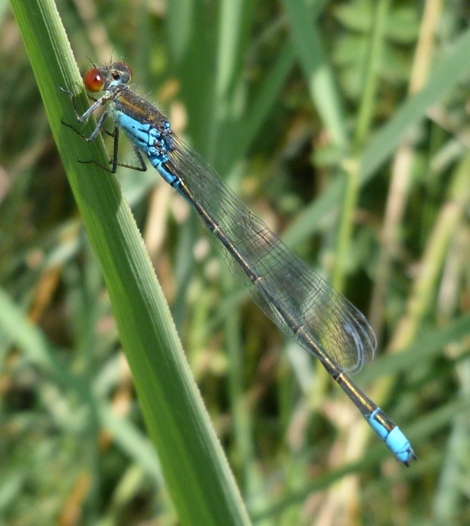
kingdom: Animalia
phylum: Arthropoda
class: Insecta
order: Odonata
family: Coenagrionidae
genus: Erythromma
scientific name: Erythromma viridulum
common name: Small red-eyed damselfly
